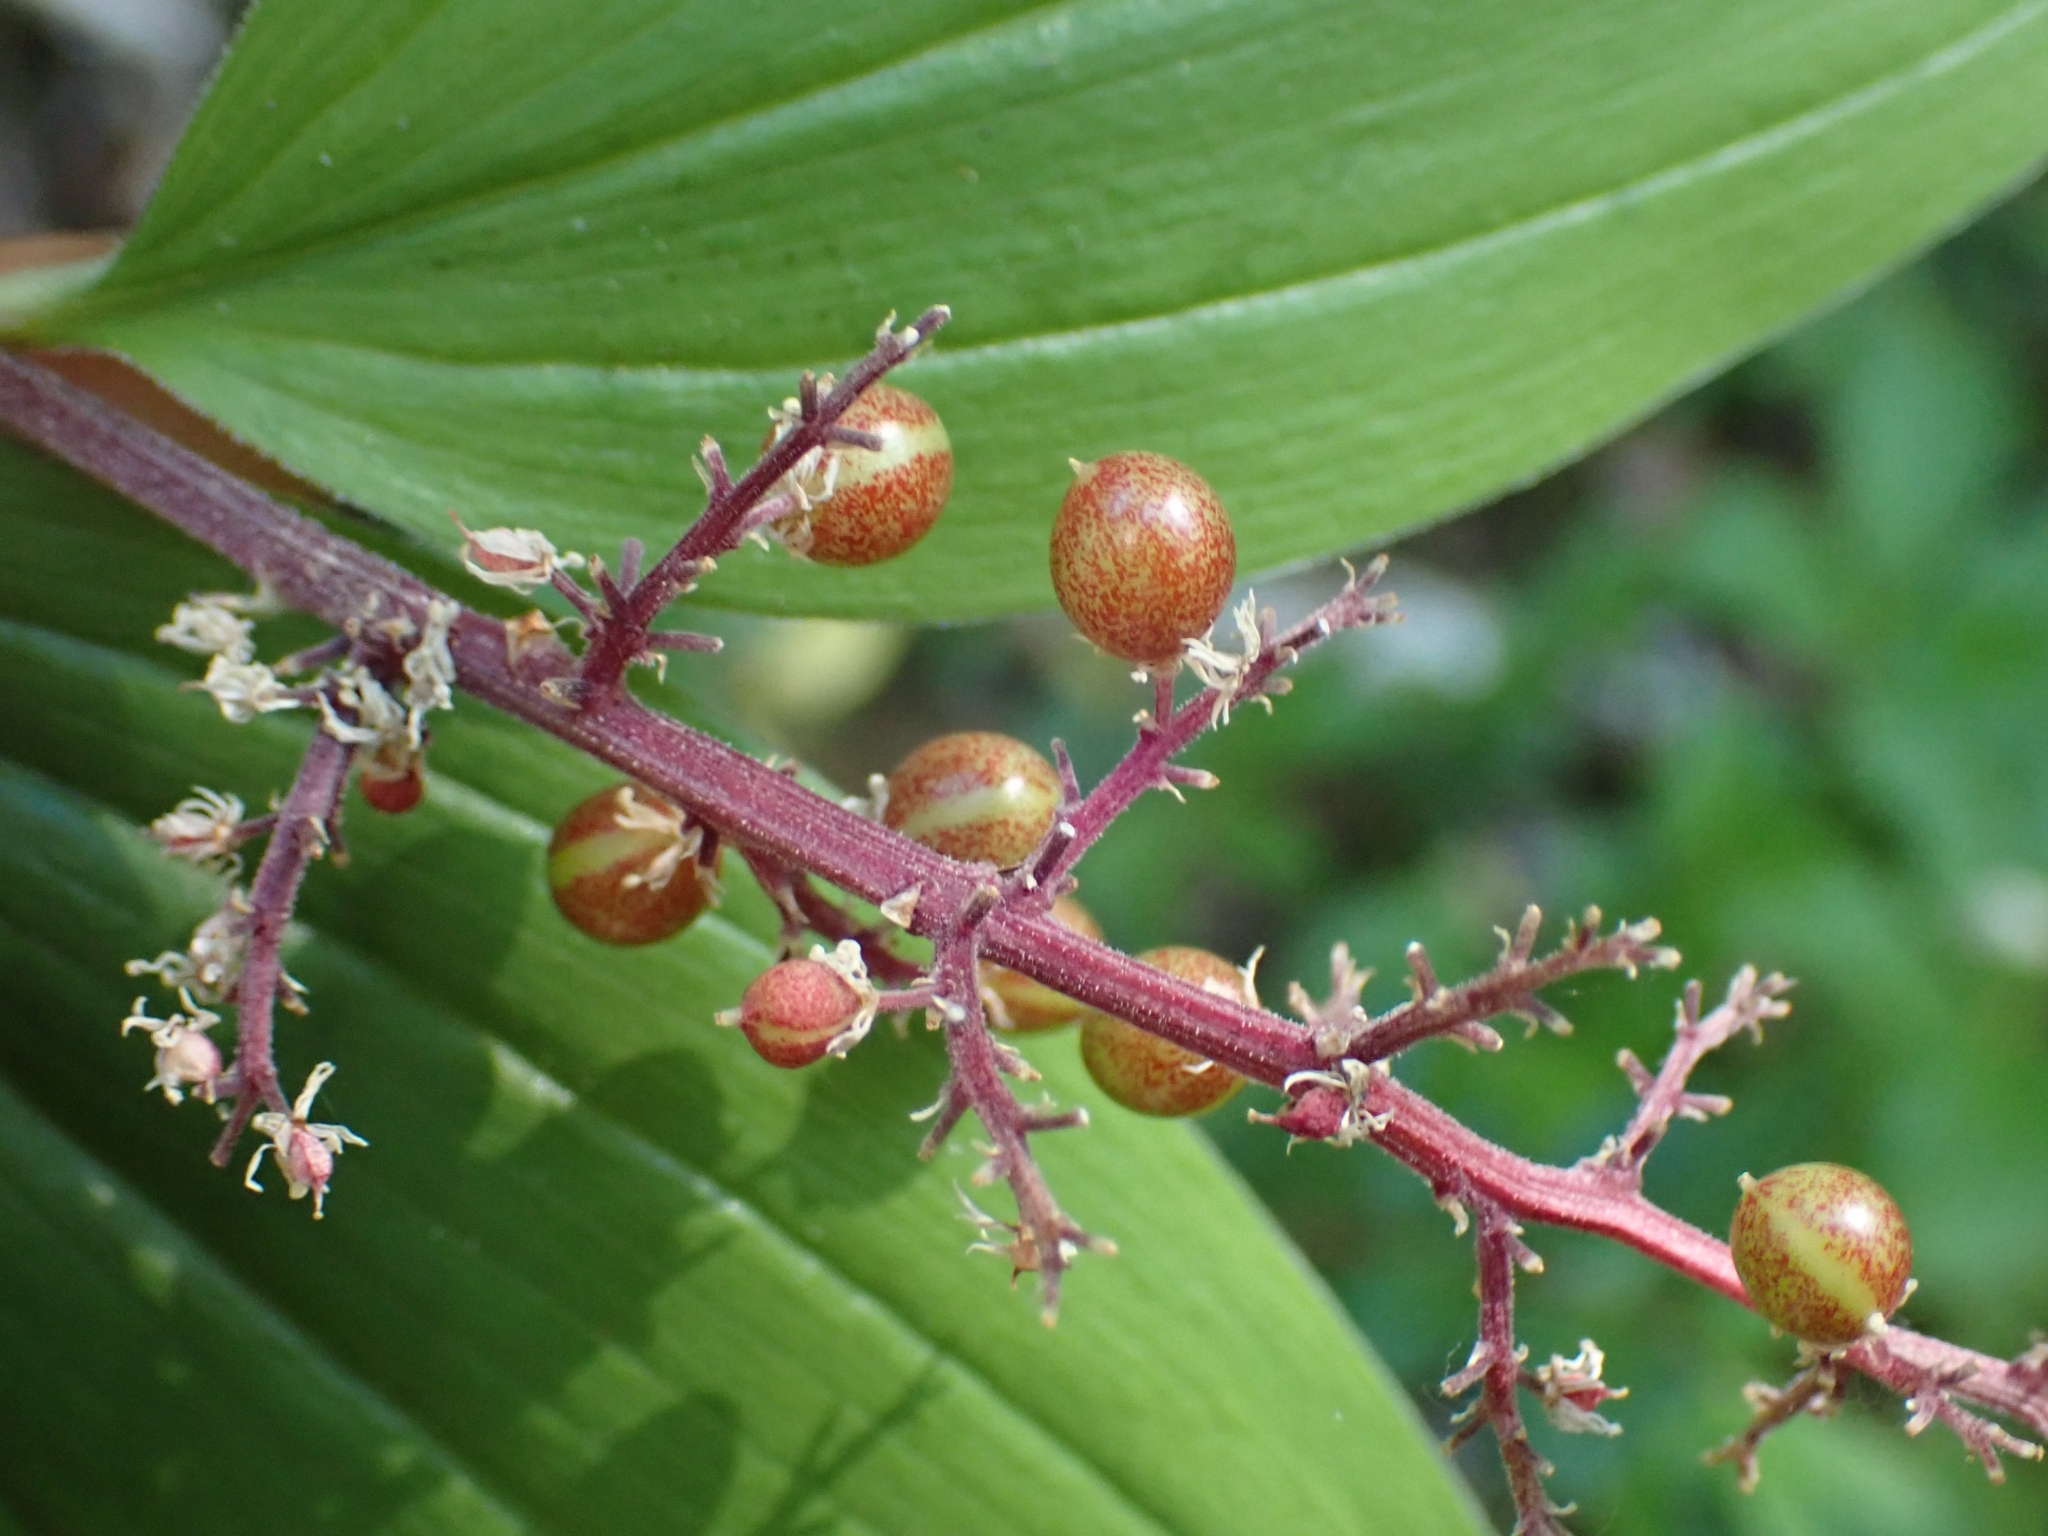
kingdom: Plantae
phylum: Tracheophyta
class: Liliopsida
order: Asparagales
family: Asparagaceae
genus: Maianthemum
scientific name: Maianthemum racemosum
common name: False spikenard
